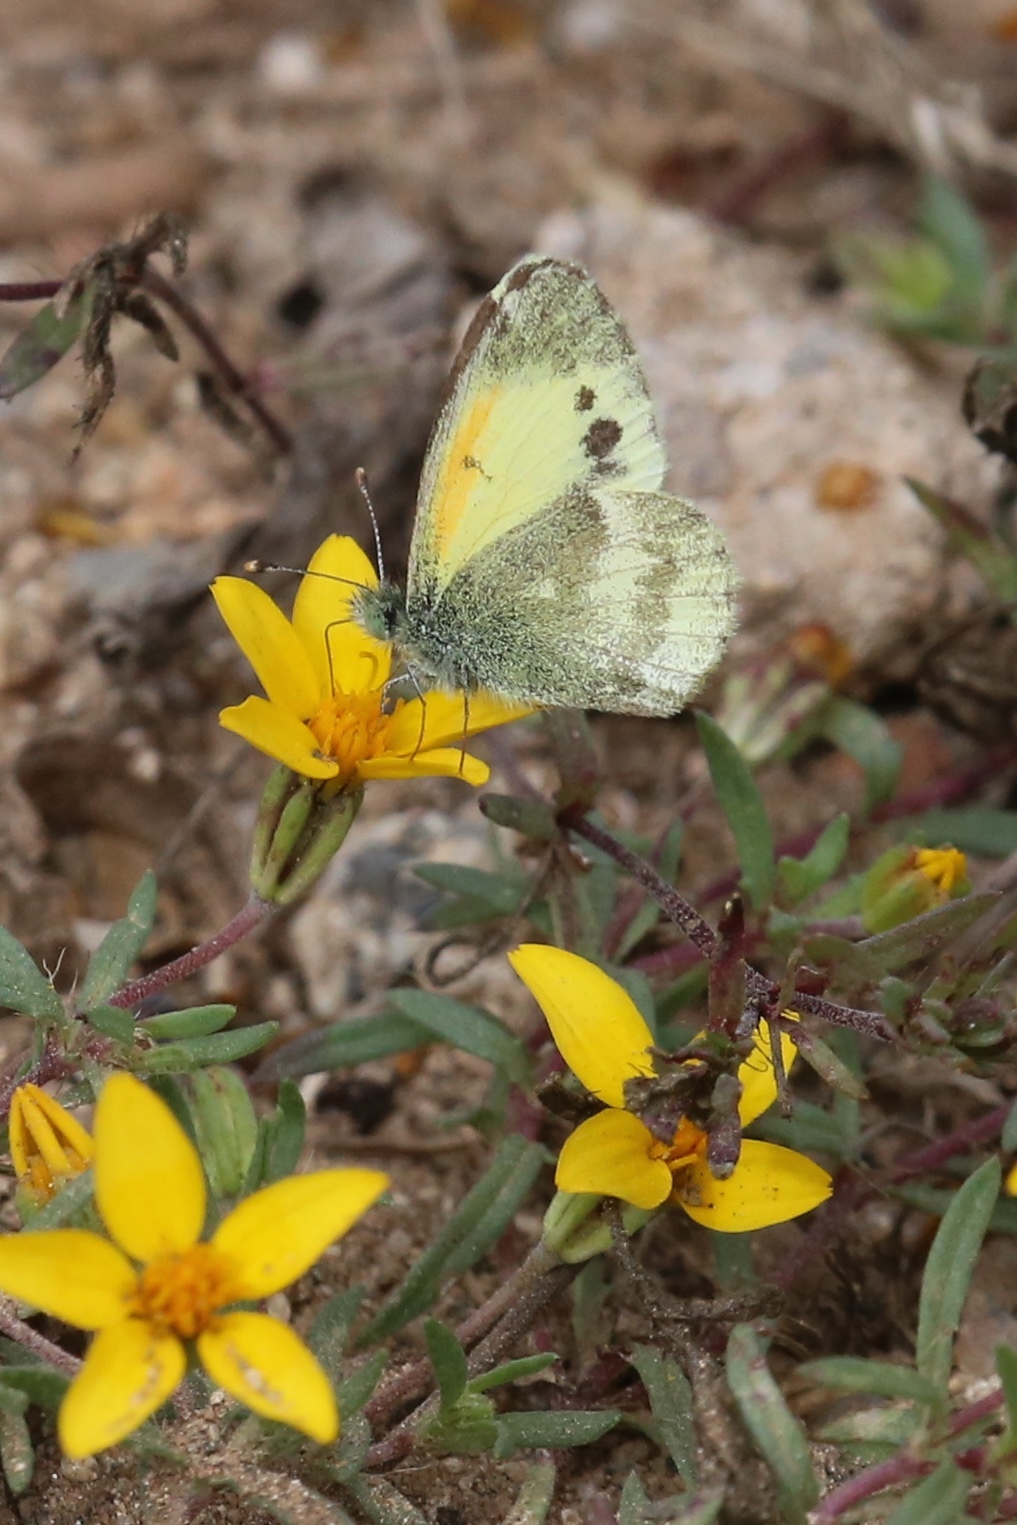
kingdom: Animalia
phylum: Arthropoda
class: Insecta
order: Lepidoptera
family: Pieridae
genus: Nathalis
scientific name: Nathalis iole
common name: Dainty sulphur
